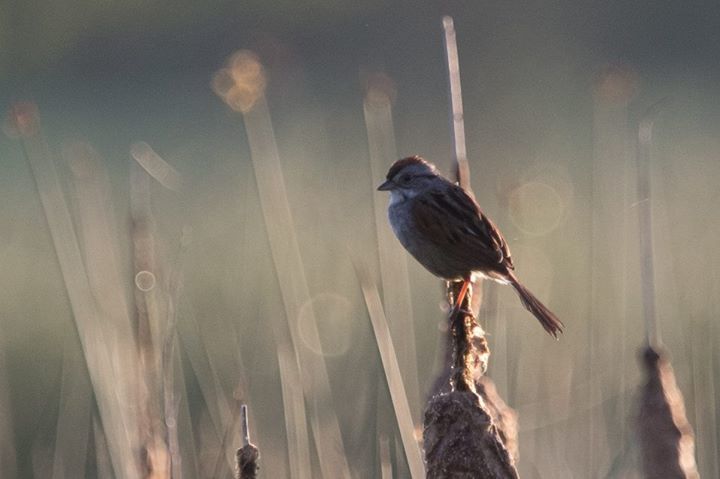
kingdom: Animalia
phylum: Chordata
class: Aves
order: Passeriformes
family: Passerellidae
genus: Melospiza
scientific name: Melospiza georgiana
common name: Swamp sparrow
